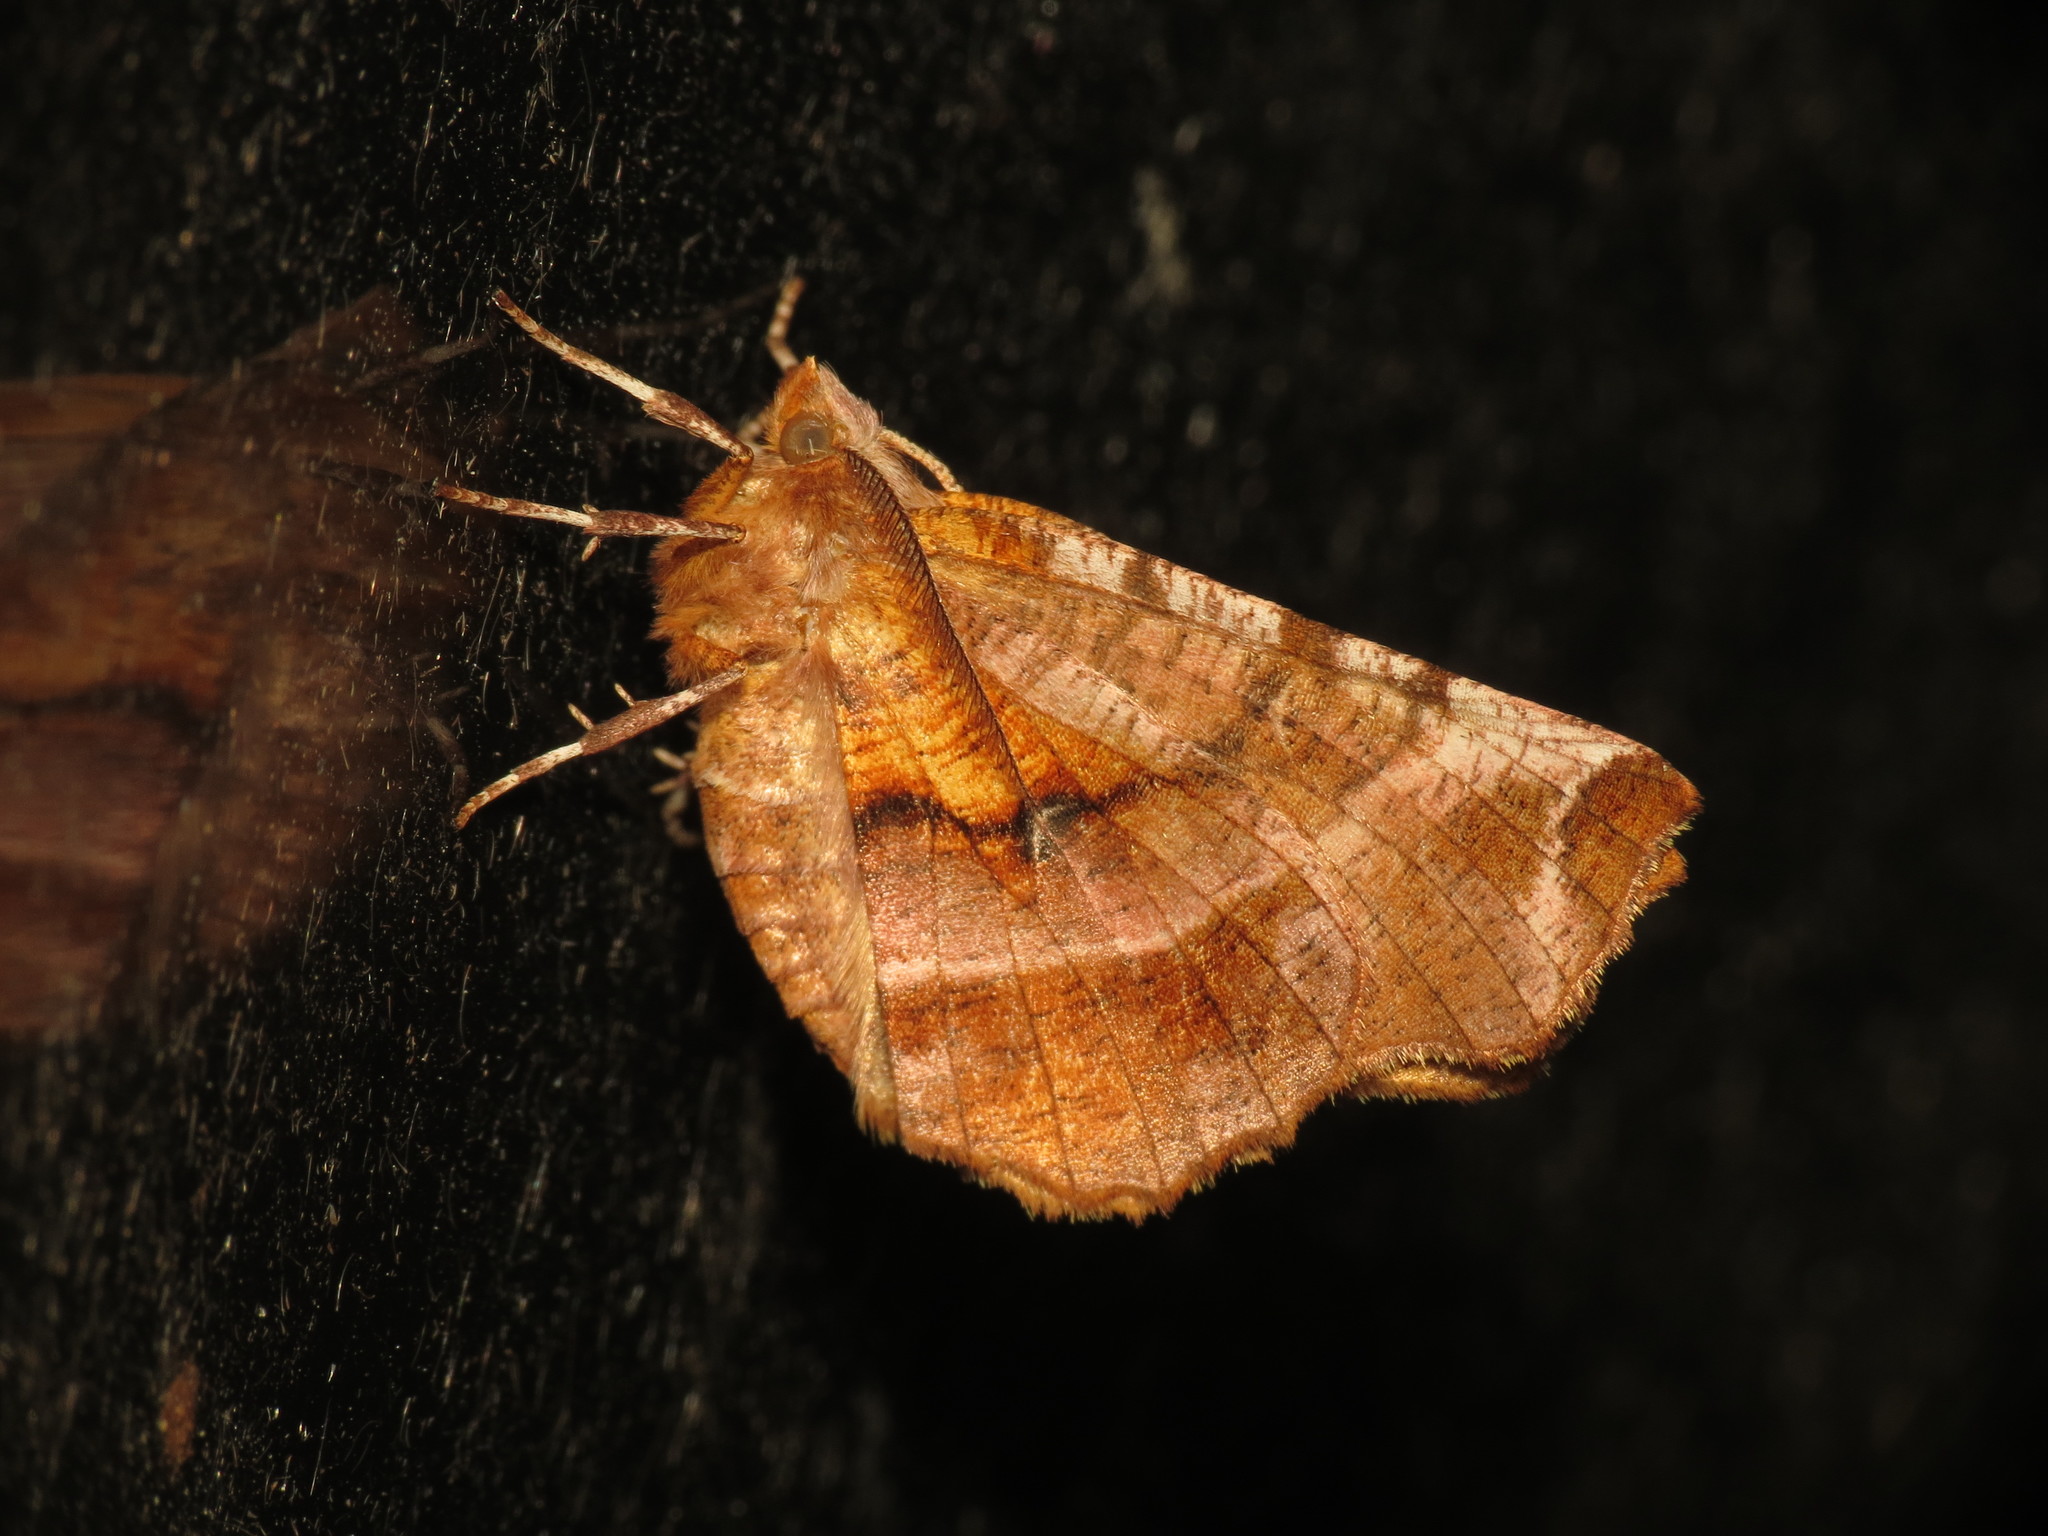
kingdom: Animalia
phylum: Arthropoda
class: Insecta
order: Lepidoptera
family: Geometridae
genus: Selenia
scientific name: Selenia dentaria
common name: Early thorn
